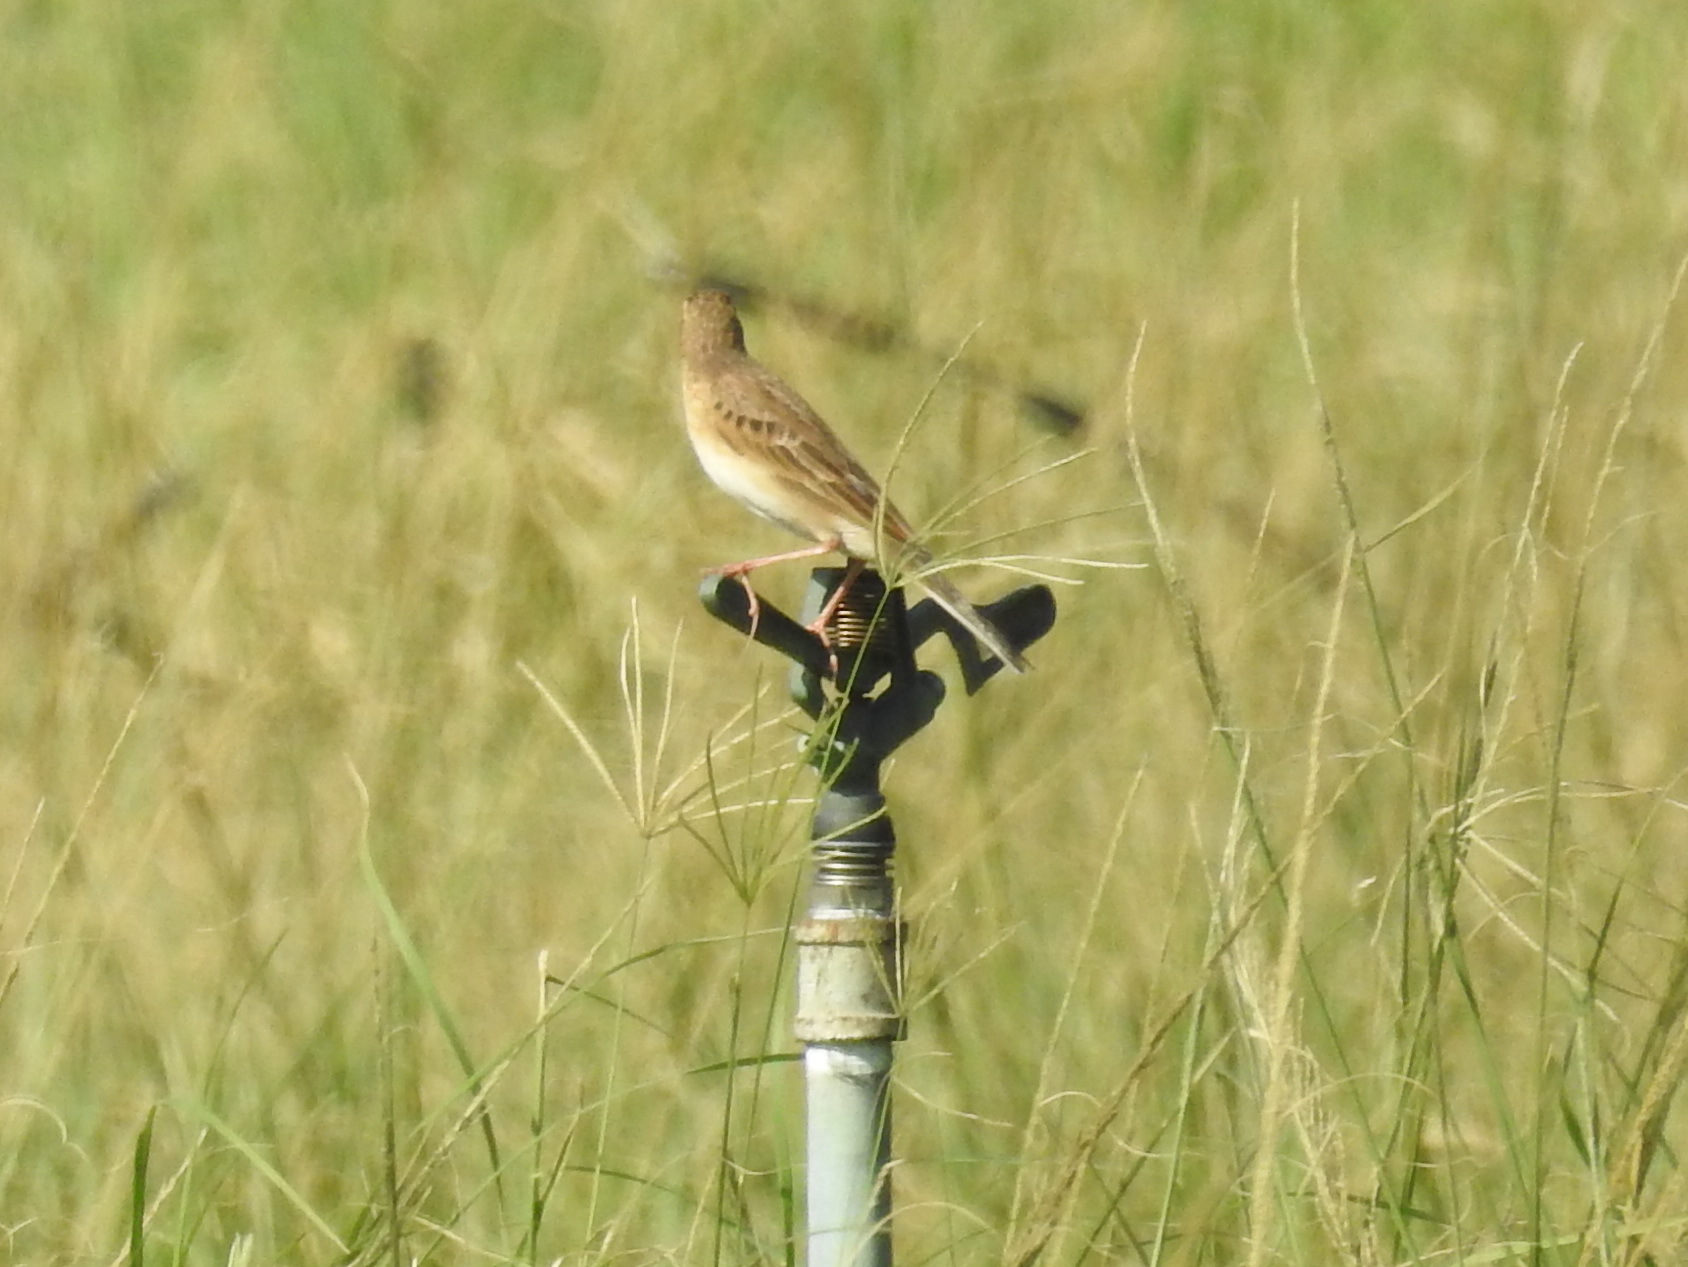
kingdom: Animalia
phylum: Chordata
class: Aves
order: Passeriformes
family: Motacillidae
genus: Anthus
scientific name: Anthus richardi
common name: Richard's pipit
